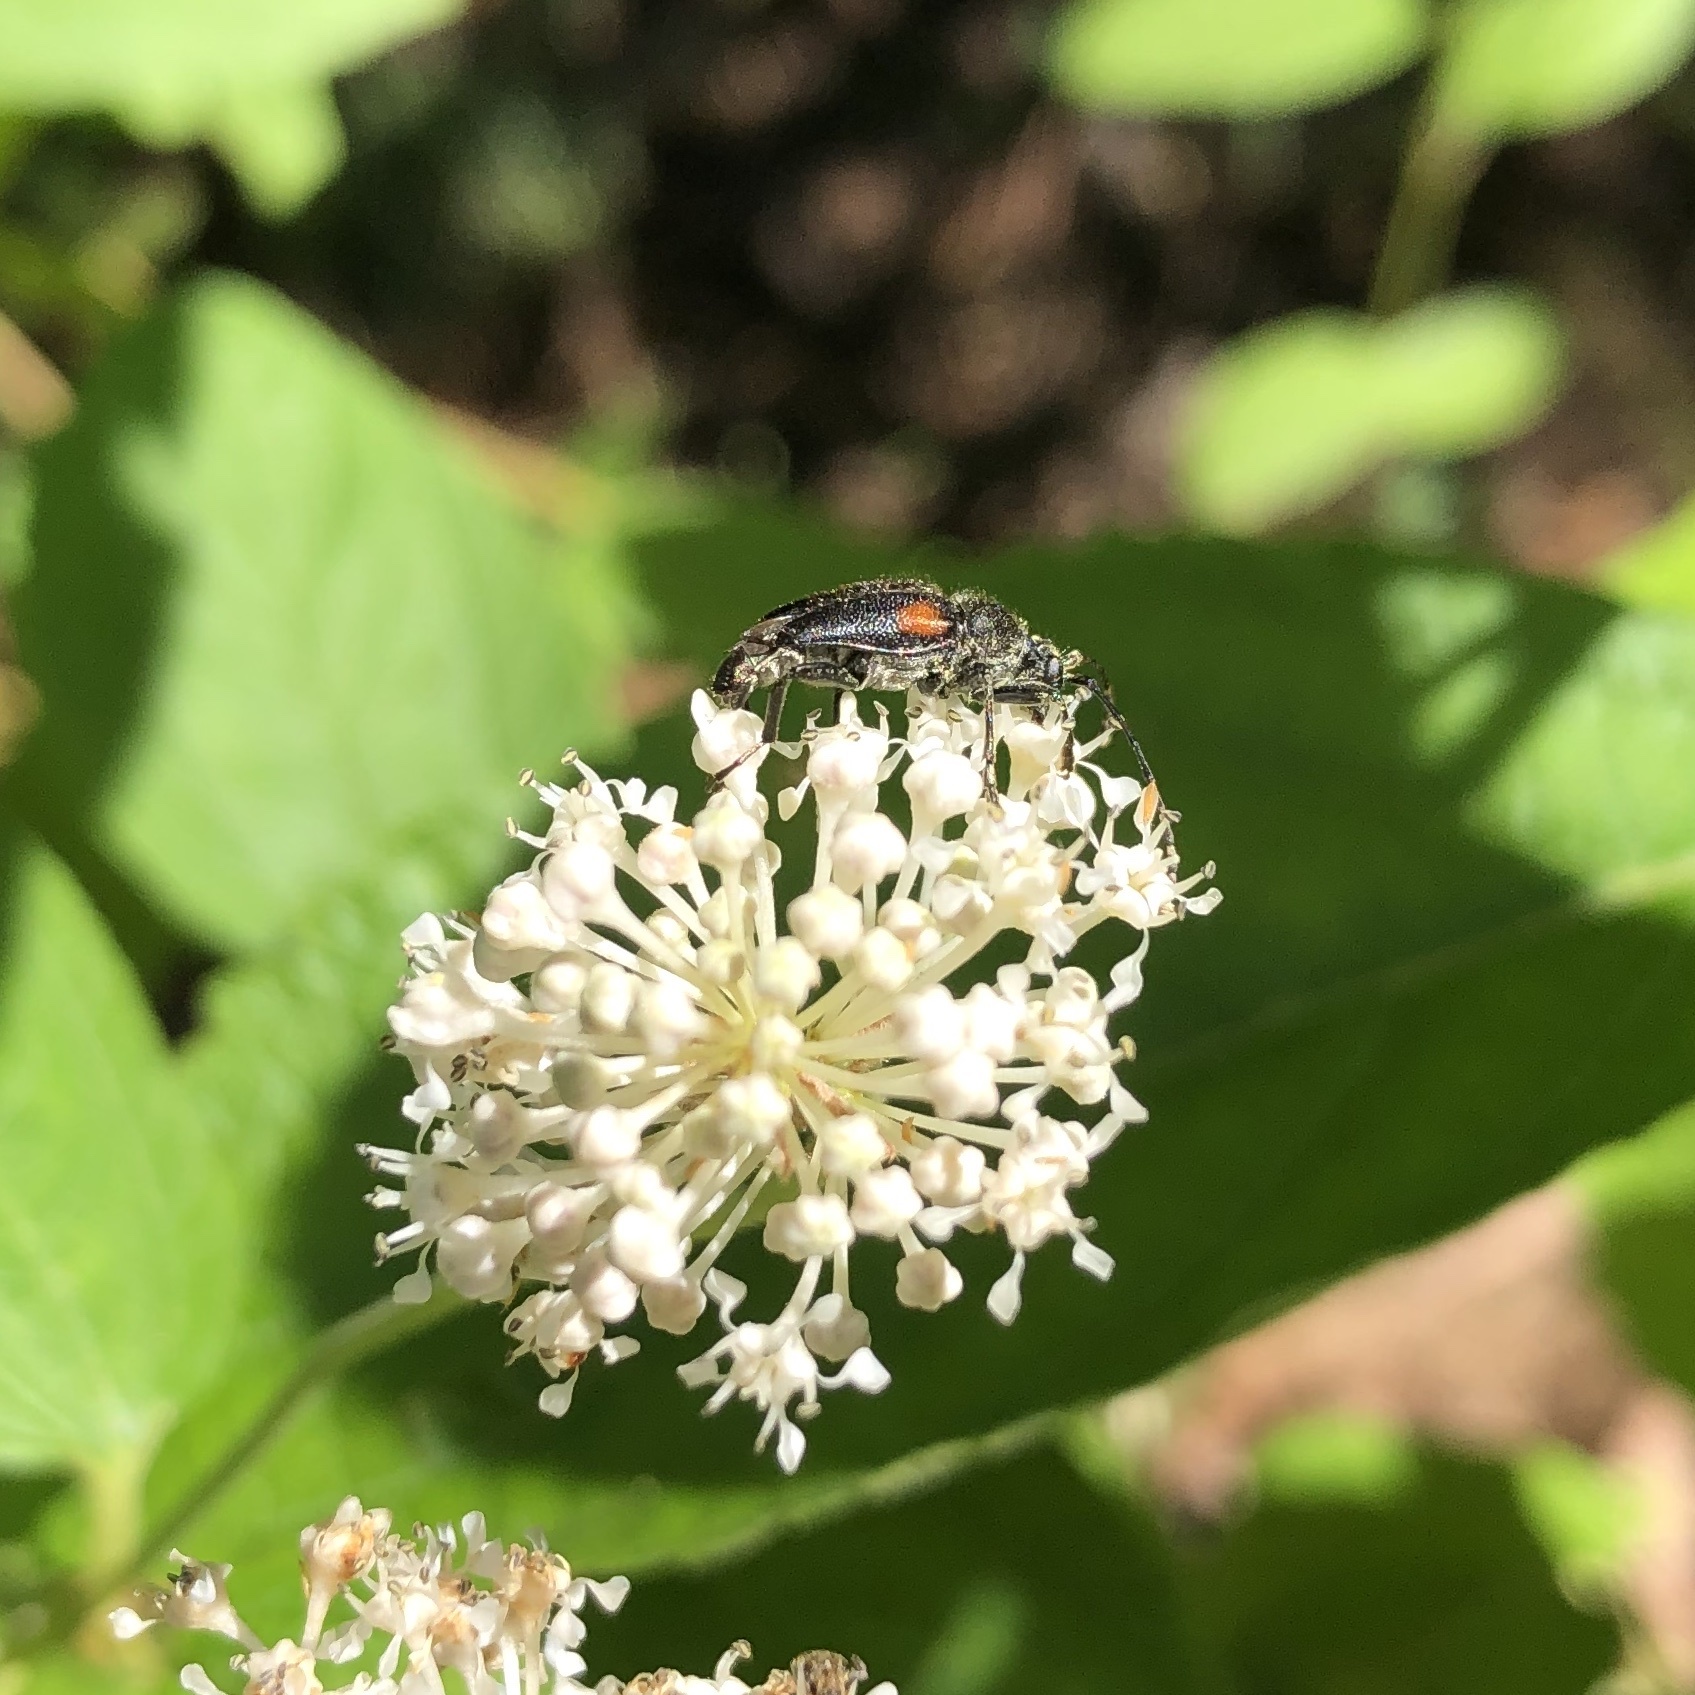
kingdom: Animalia
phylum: Arthropoda
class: Insecta
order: Coleoptera
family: Cerambycidae
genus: Brachyleptura
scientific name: Brachyleptura vagans
